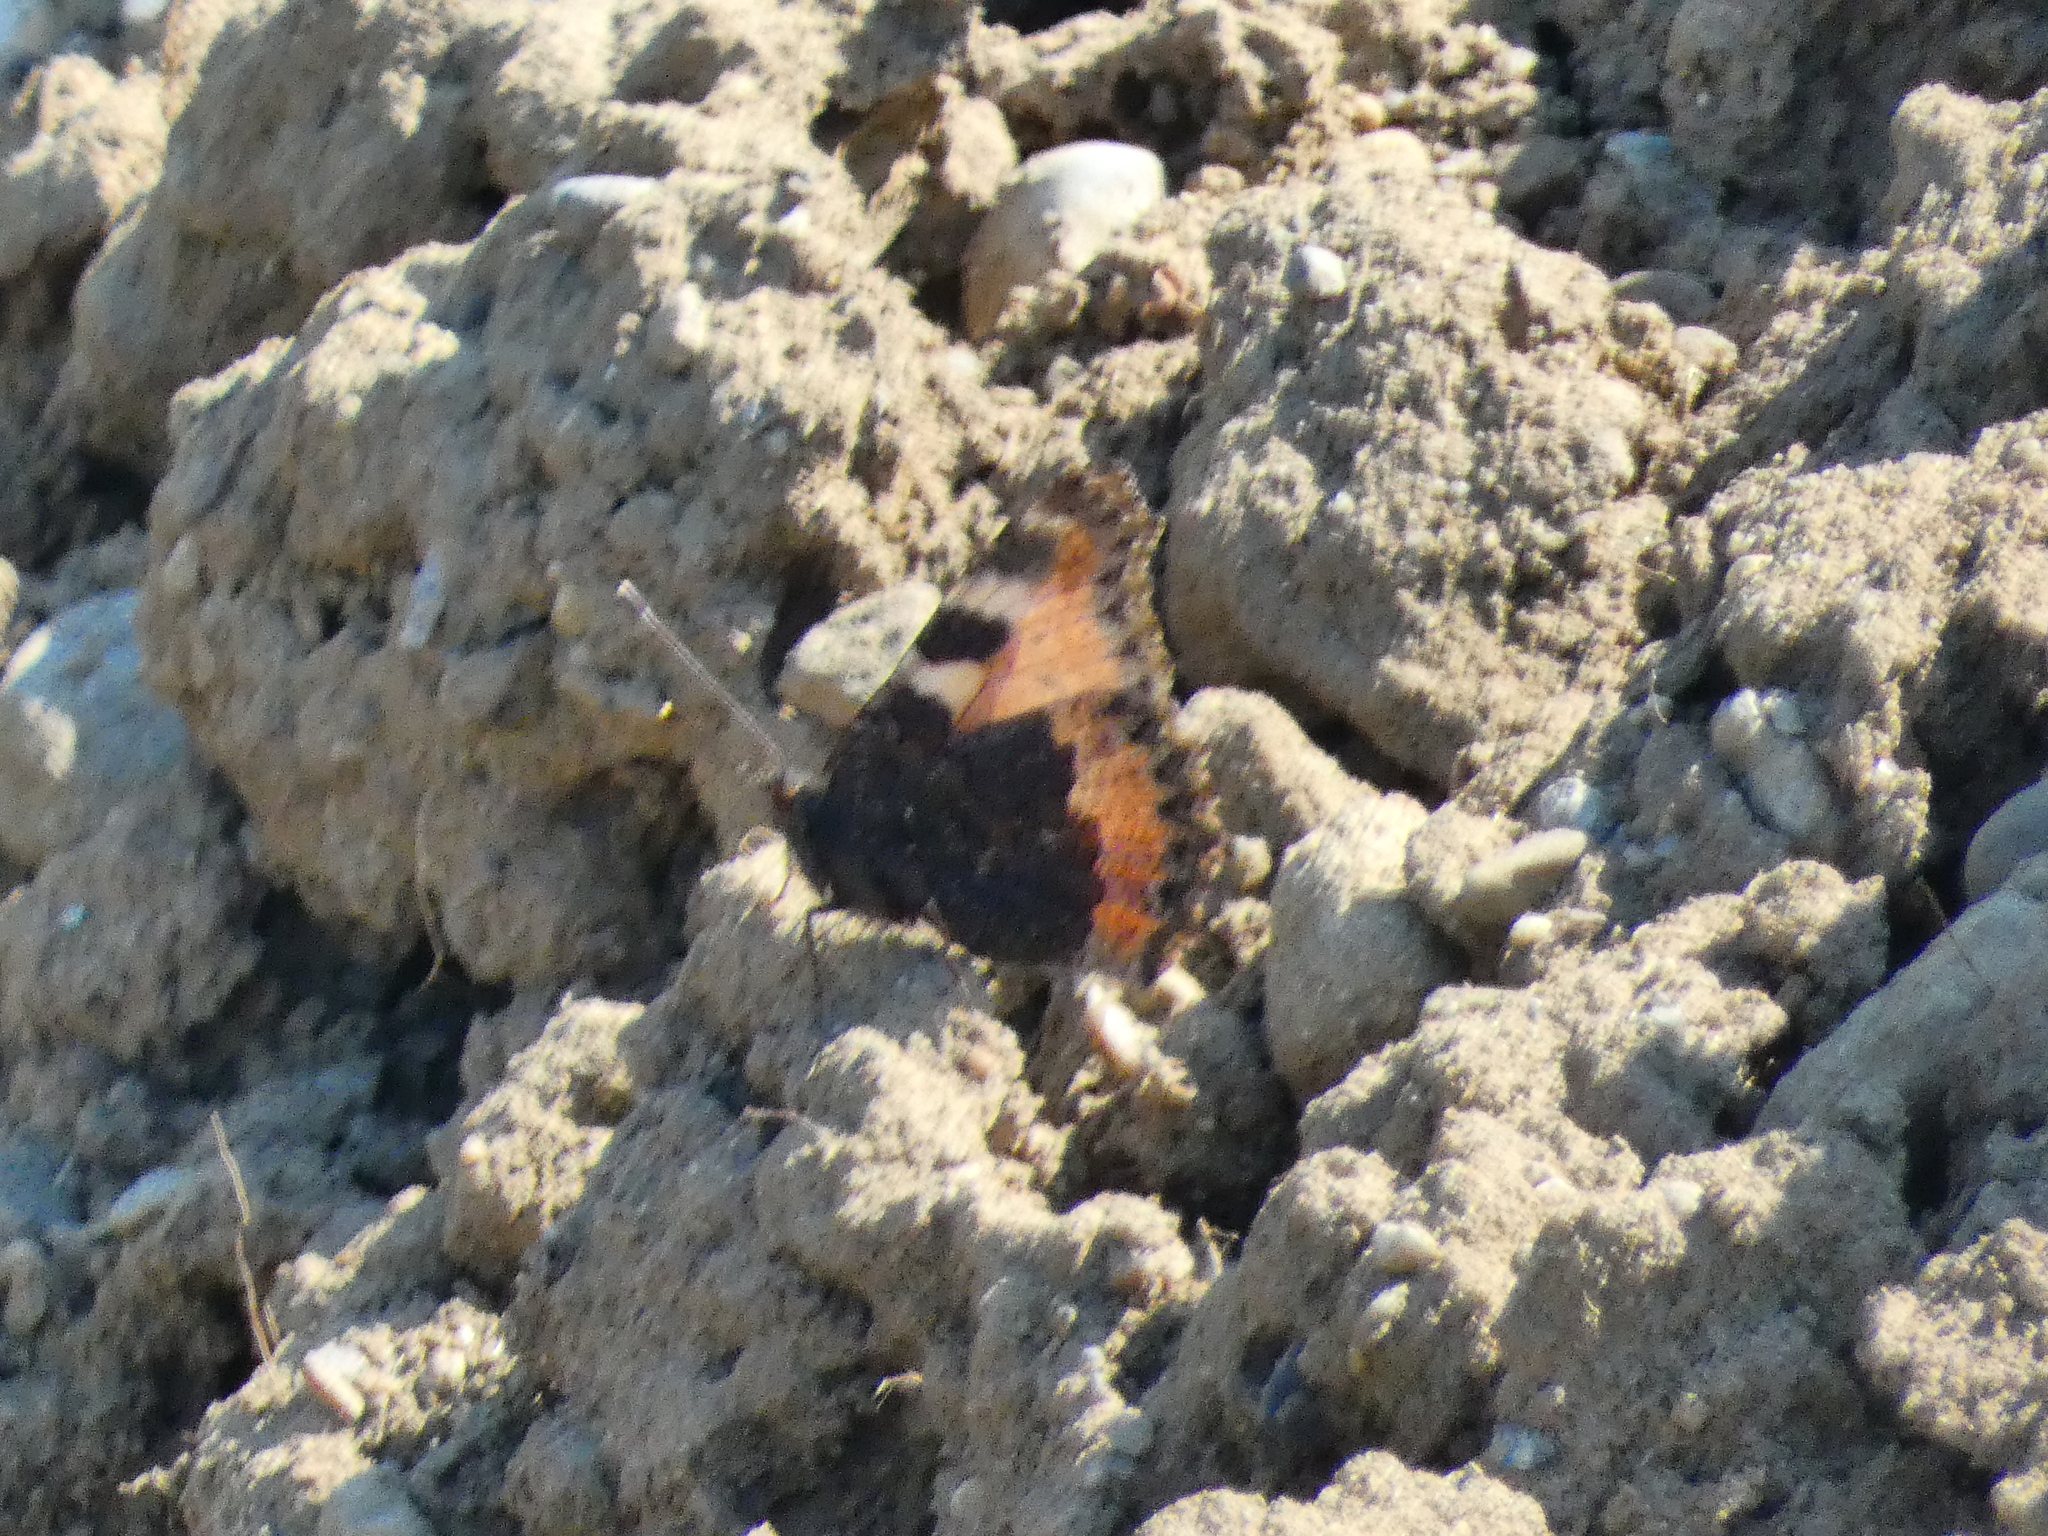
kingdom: Animalia
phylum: Arthropoda
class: Insecta
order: Lepidoptera
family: Nymphalidae
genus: Aglais
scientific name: Aglais urticae
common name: Small tortoiseshell
